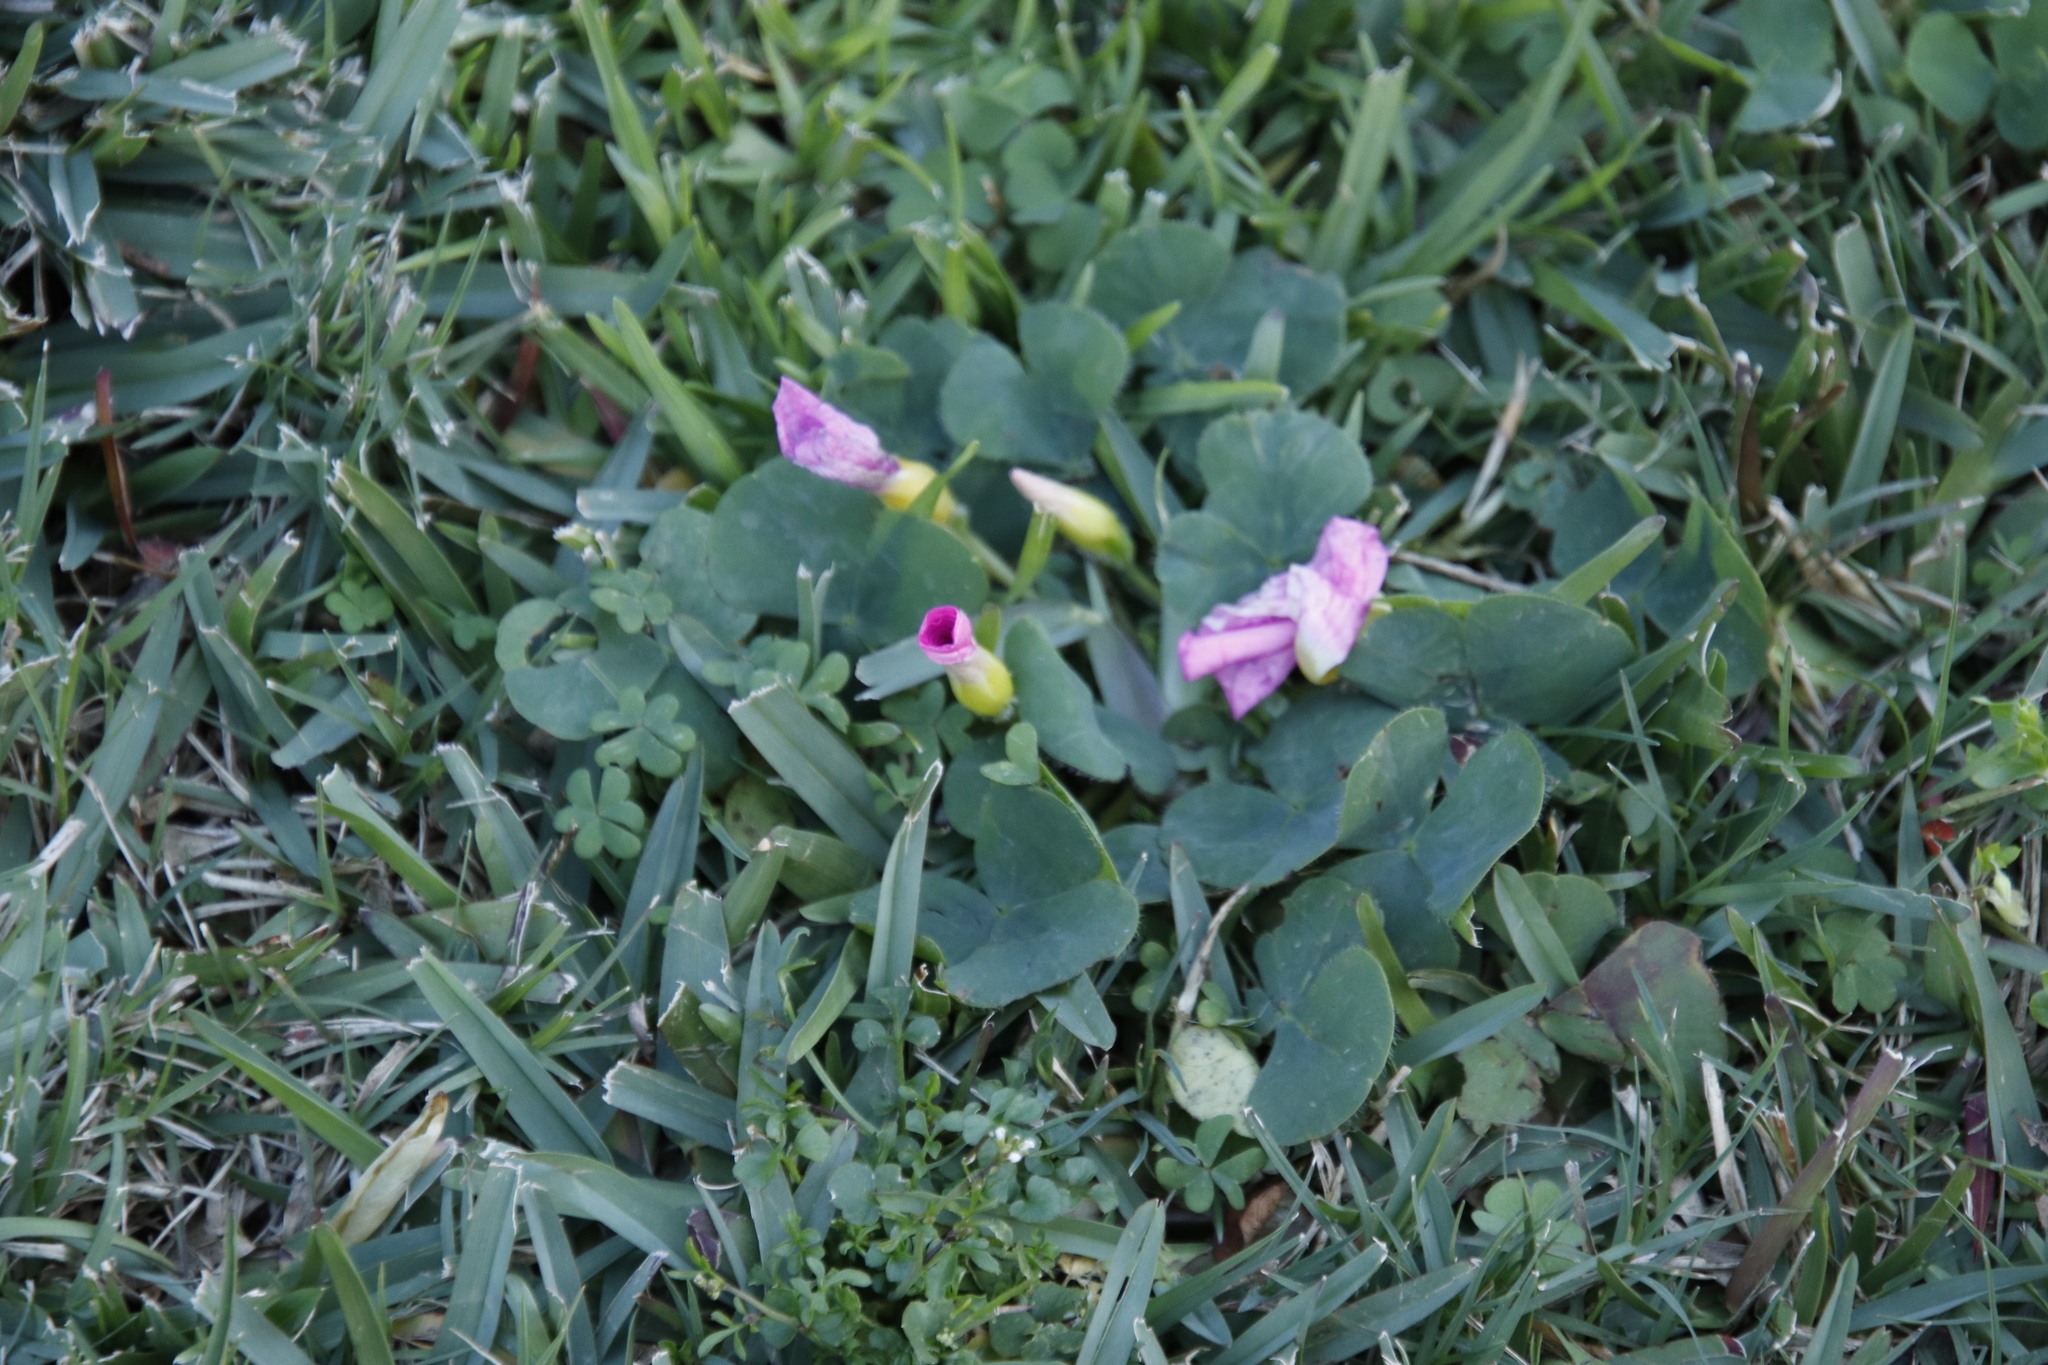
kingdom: Plantae
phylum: Tracheophyta
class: Magnoliopsida
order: Oxalidales
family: Oxalidaceae
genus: Oxalis
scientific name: Oxalis purpurea
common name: Purple woodsorrel
